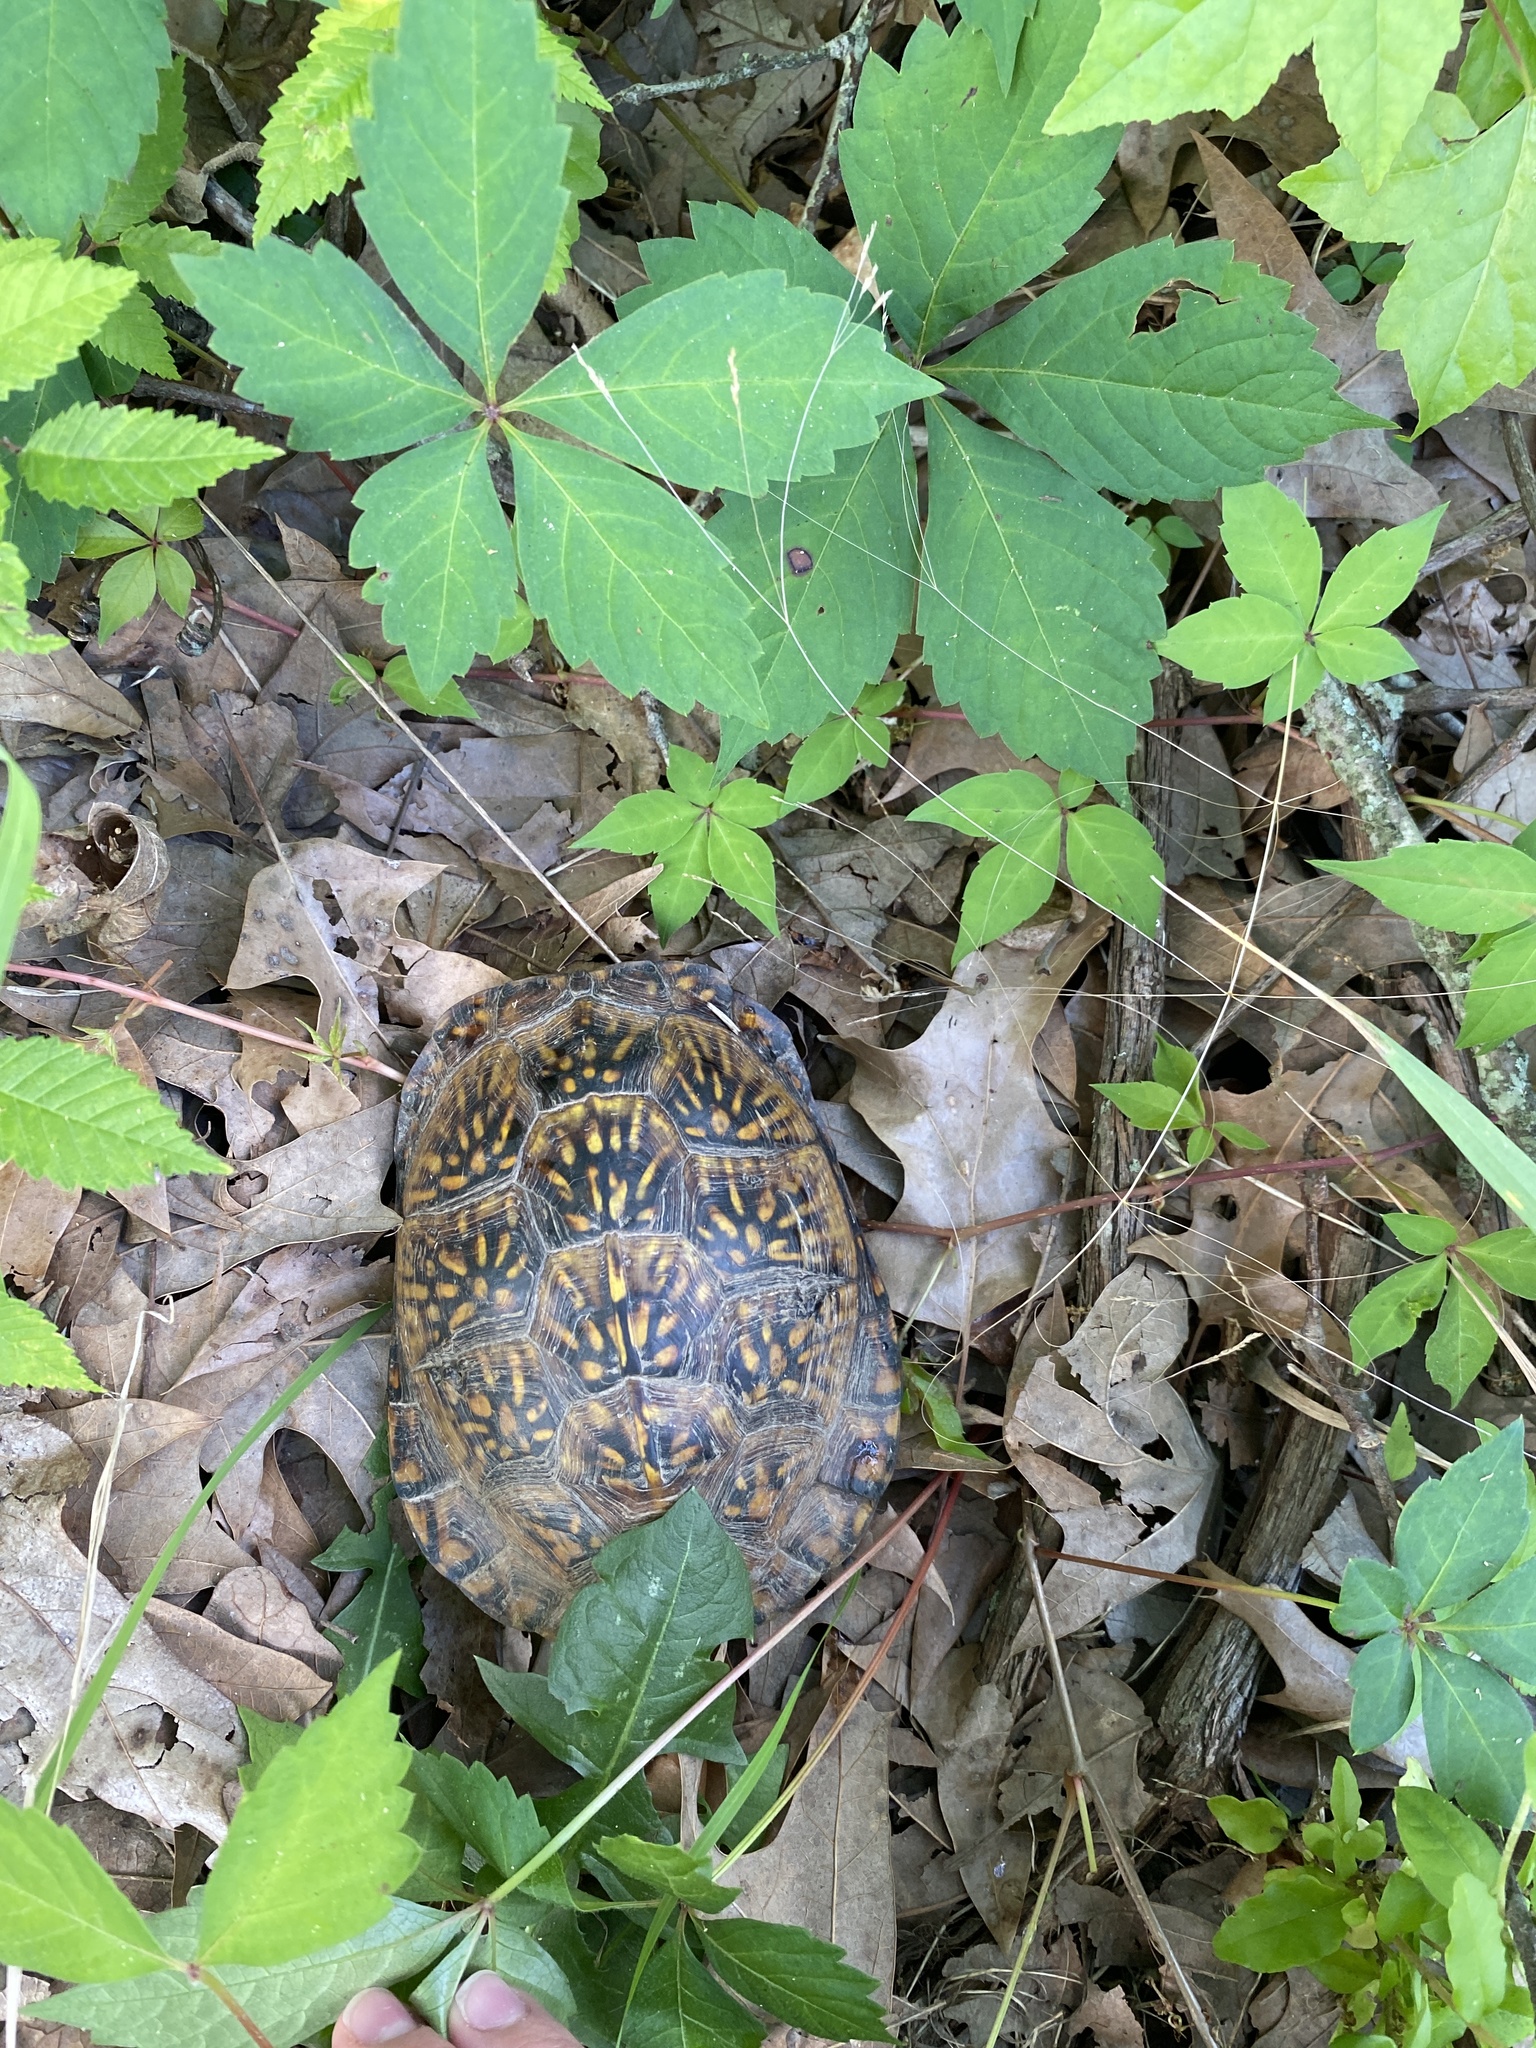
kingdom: Animalia
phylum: Chordata
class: Testudines
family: Emydidae
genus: Terrapene
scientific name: Terrapene carolina
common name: Common box turtle
